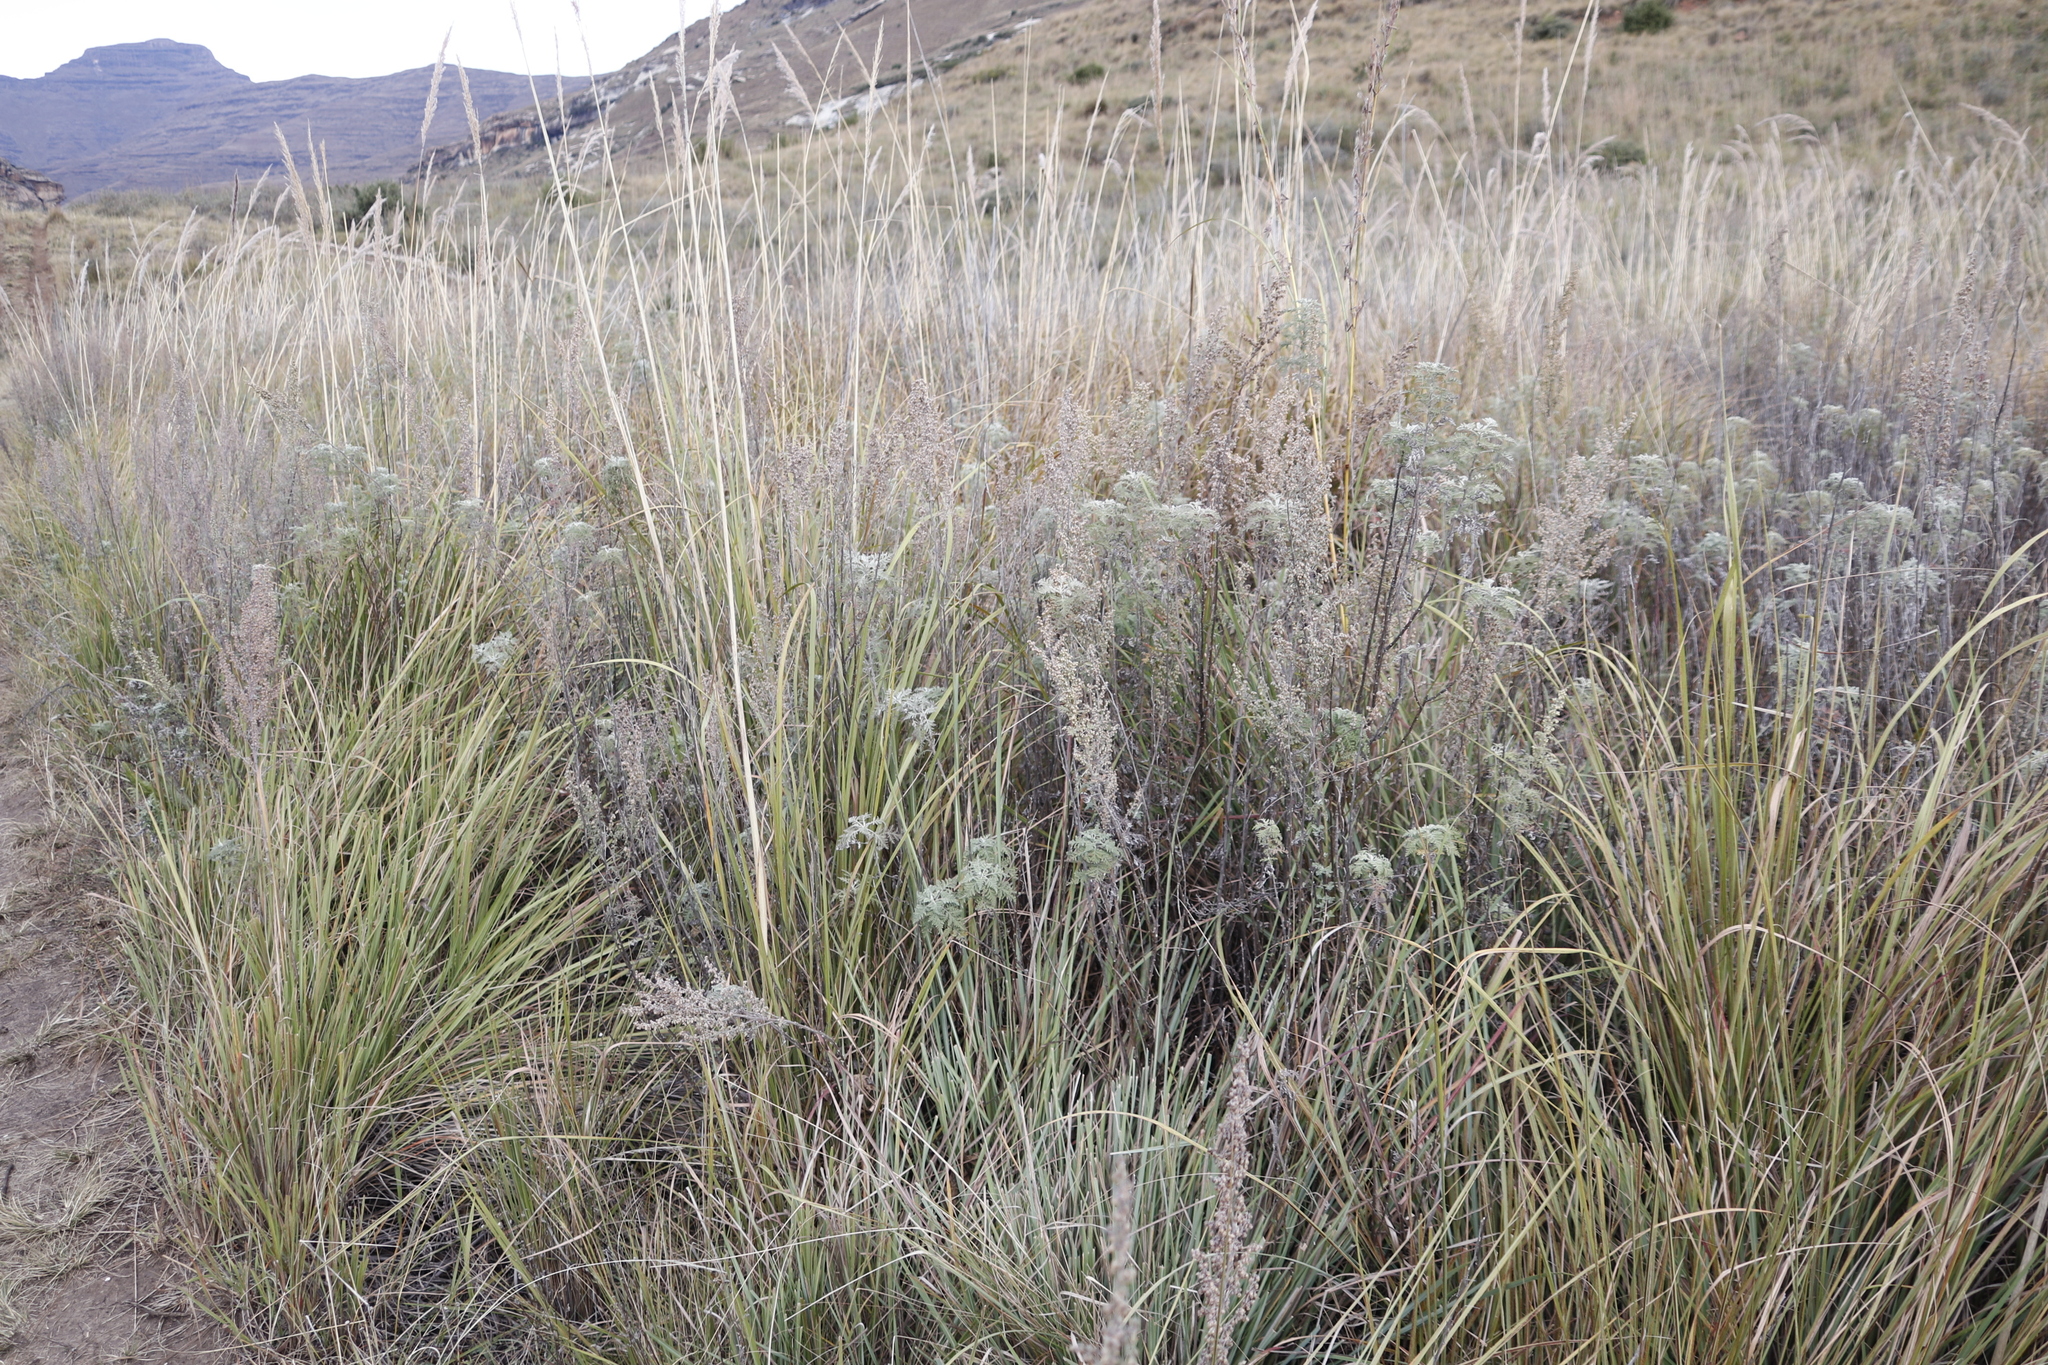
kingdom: Plantae
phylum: Tracheophyta
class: Magnoliopsida
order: Asterales
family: Asteraceae
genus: Artemisia
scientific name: Artemisia afra
